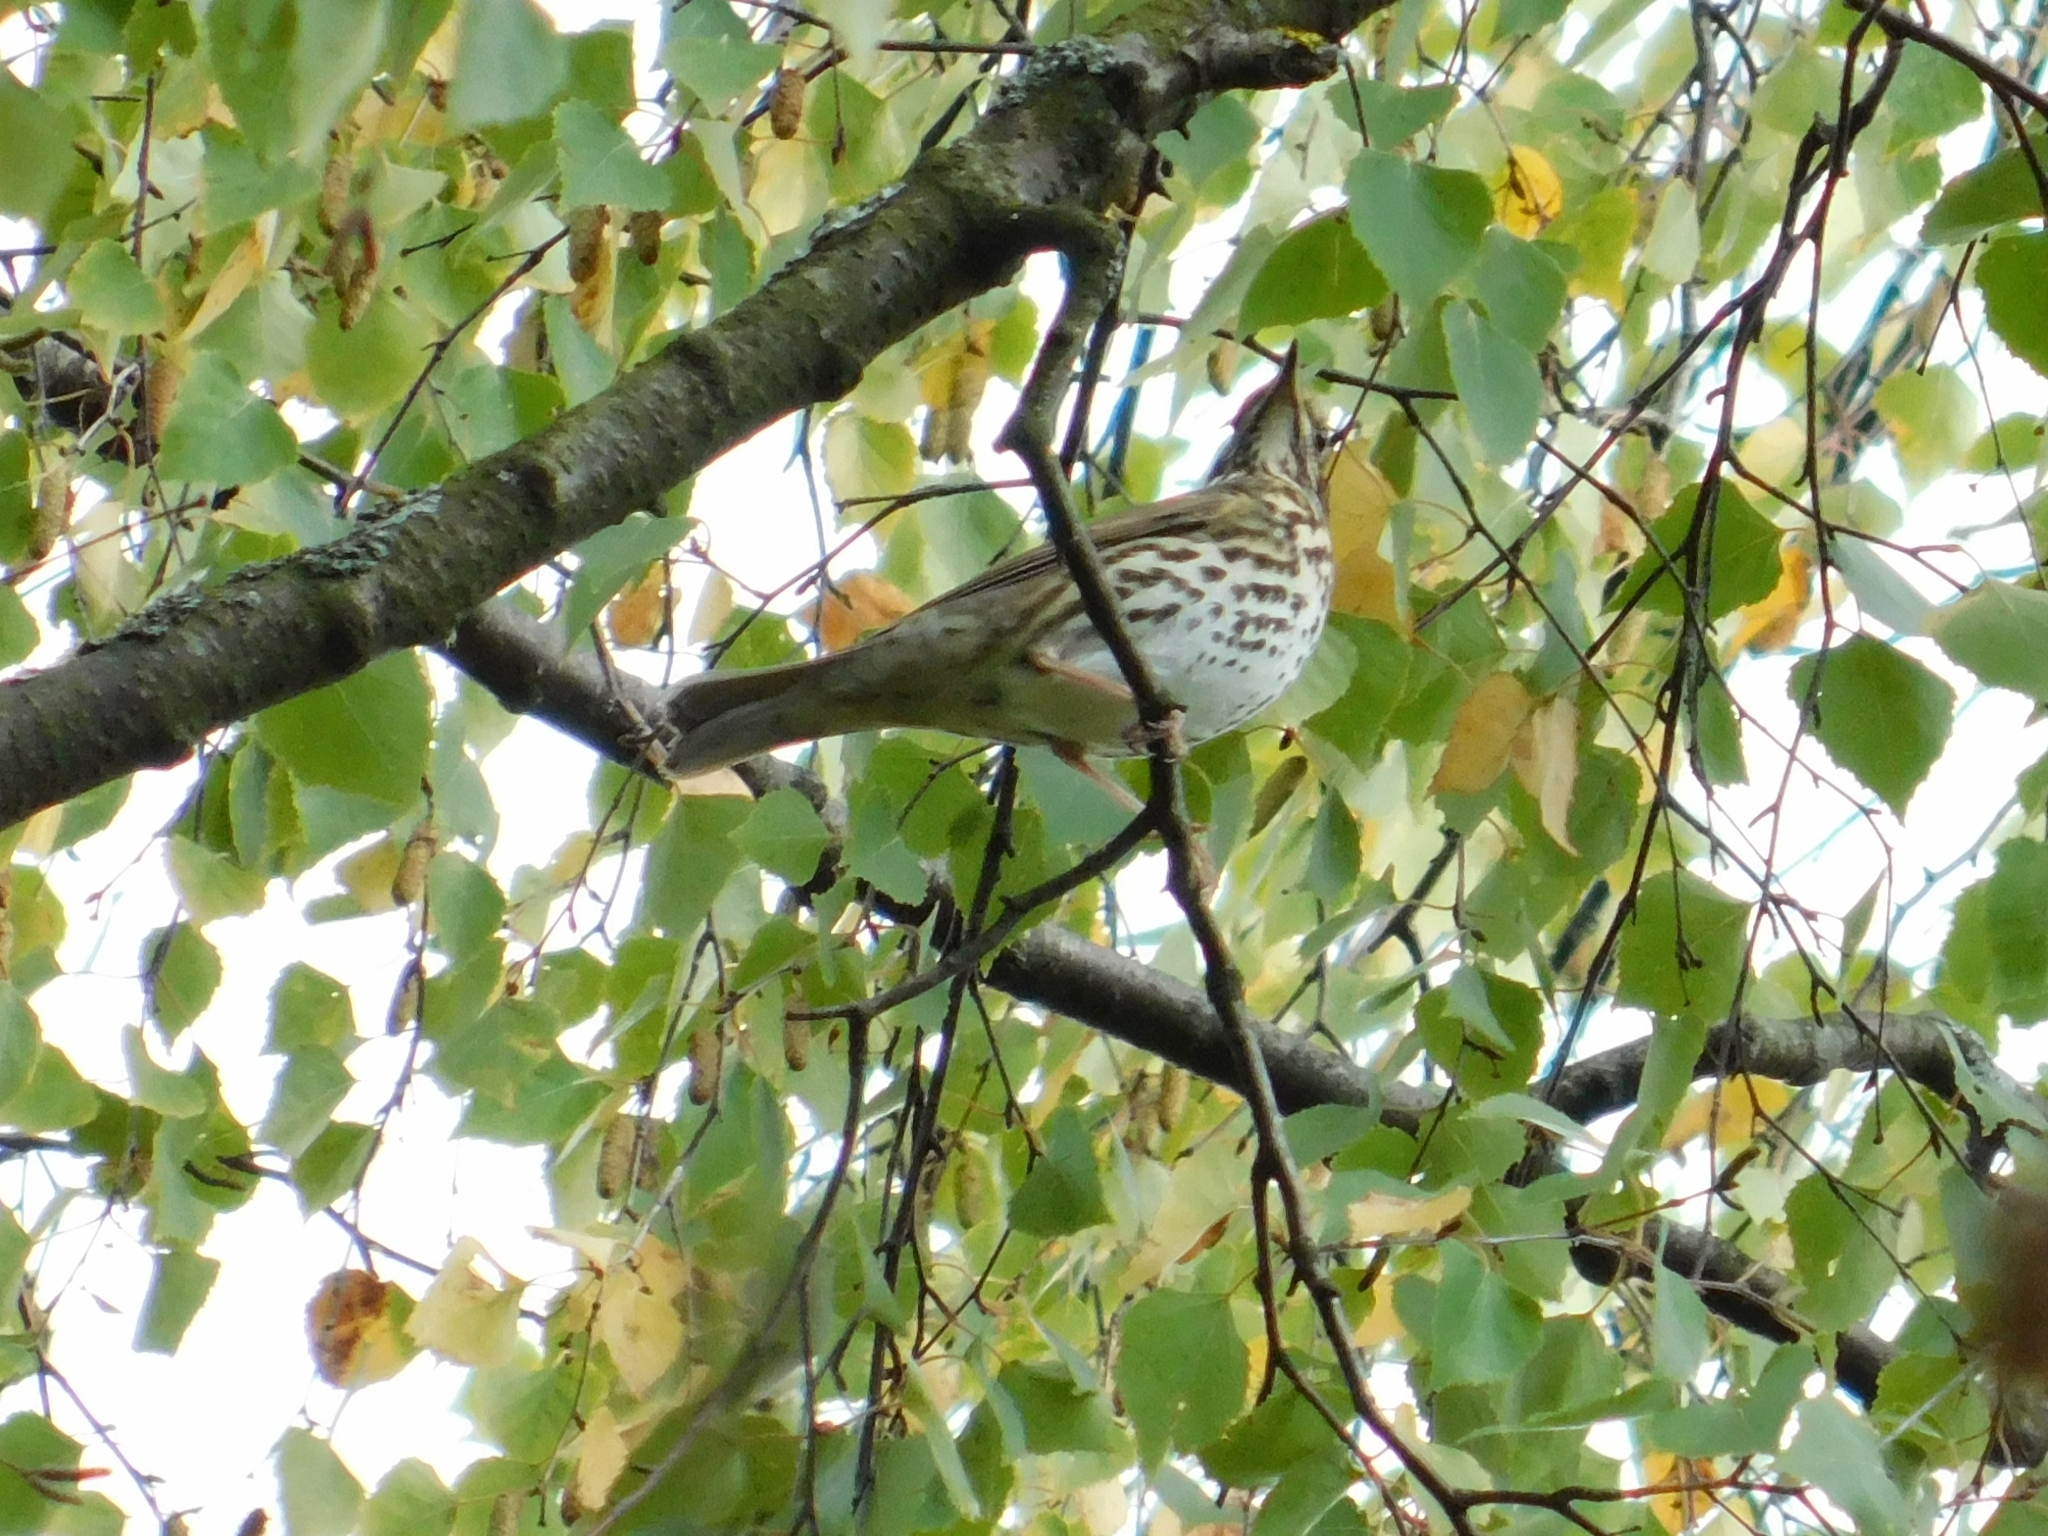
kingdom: Animalia
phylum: Chordata
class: Aves
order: Passeriformes
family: Turdidae
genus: Turdus
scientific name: Turdus philomelos
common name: Song thrush
